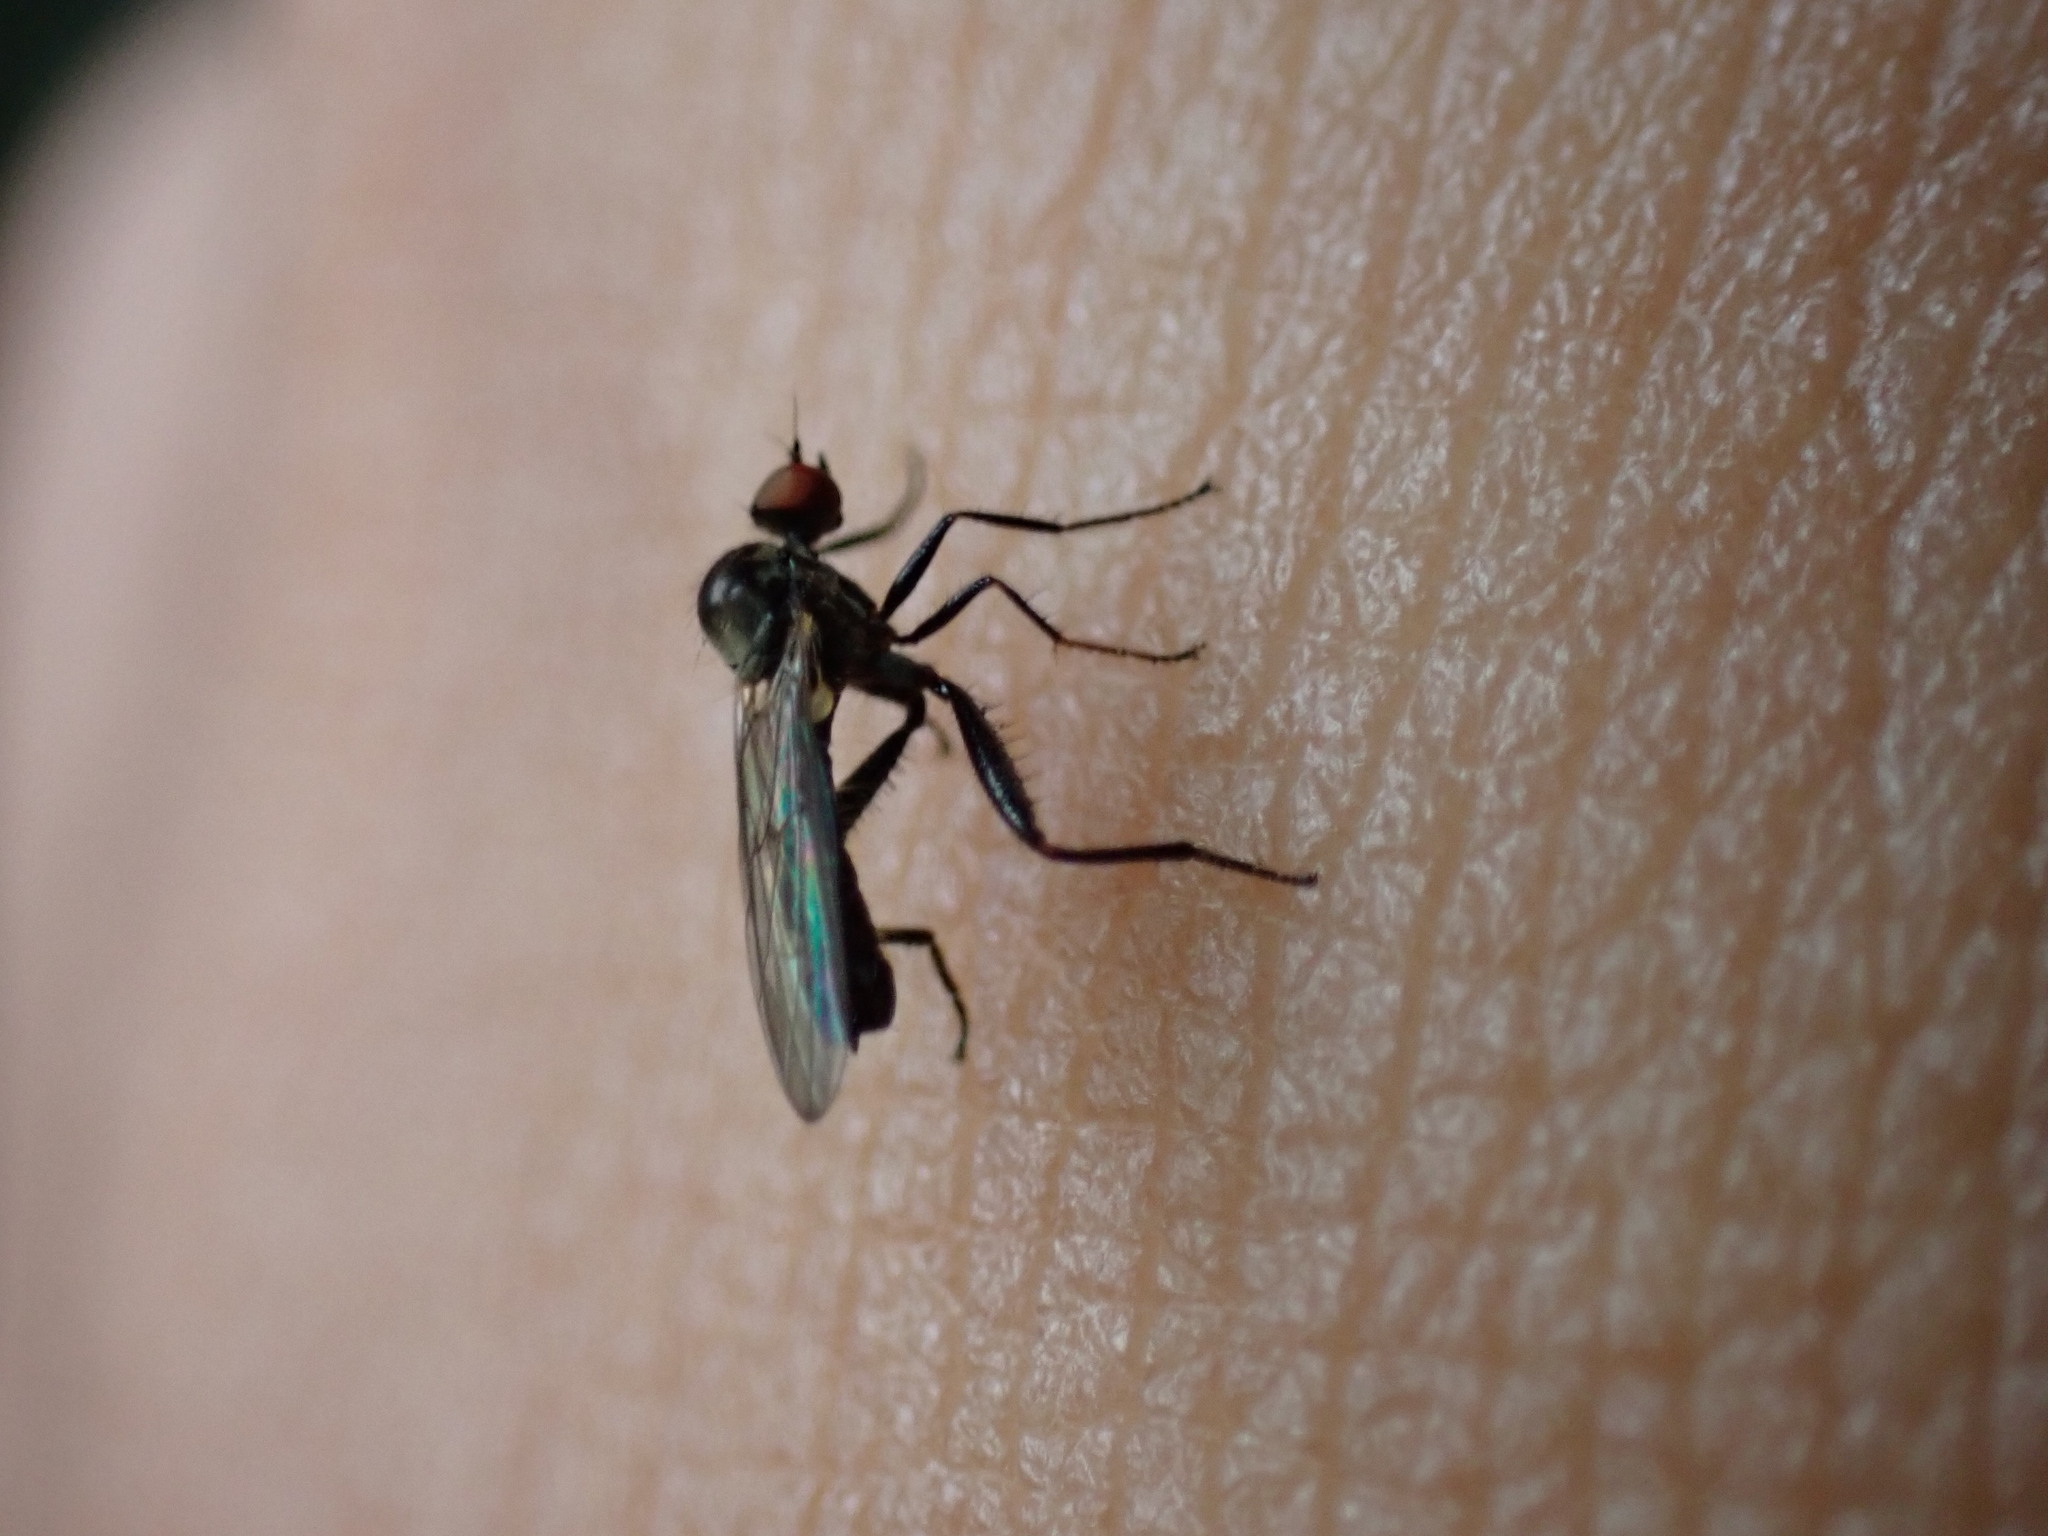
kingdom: Animalia
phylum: Arthropoda
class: Insecta
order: Diptera
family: Hybotidae
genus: Hybos
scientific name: Hybos culiciformis
